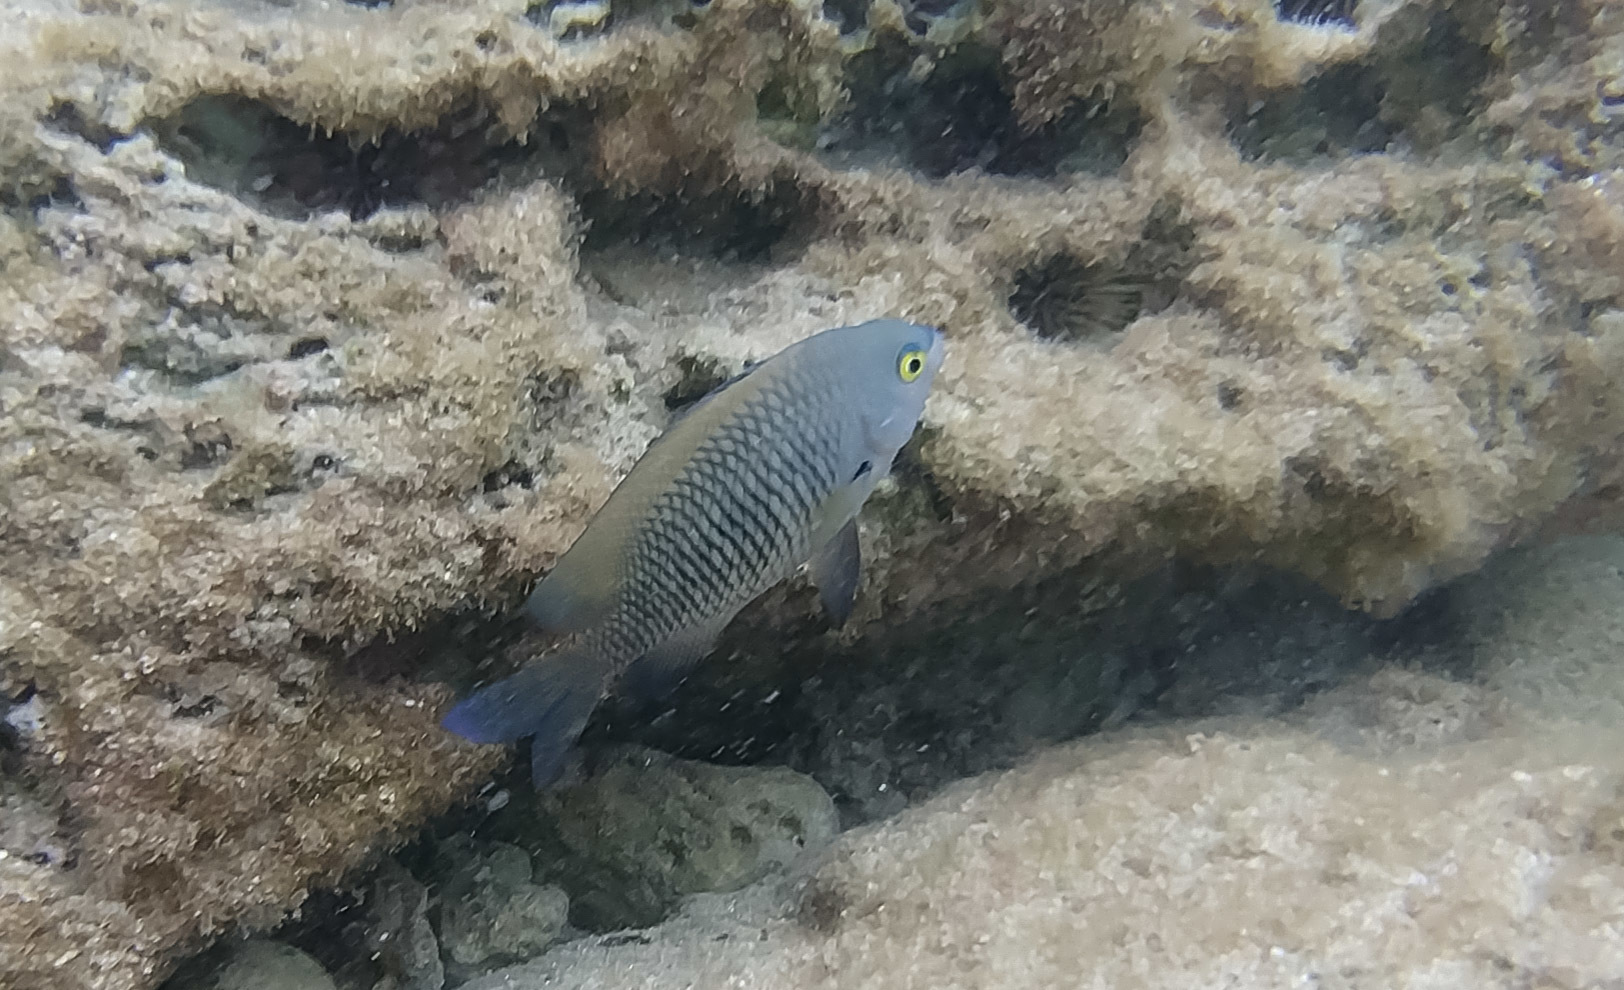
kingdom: Animalia
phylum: Chordata
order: Perciformes
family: Pomacentridae
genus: Stegastes
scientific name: Stegastes fasciolatus
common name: Pacific gregory
